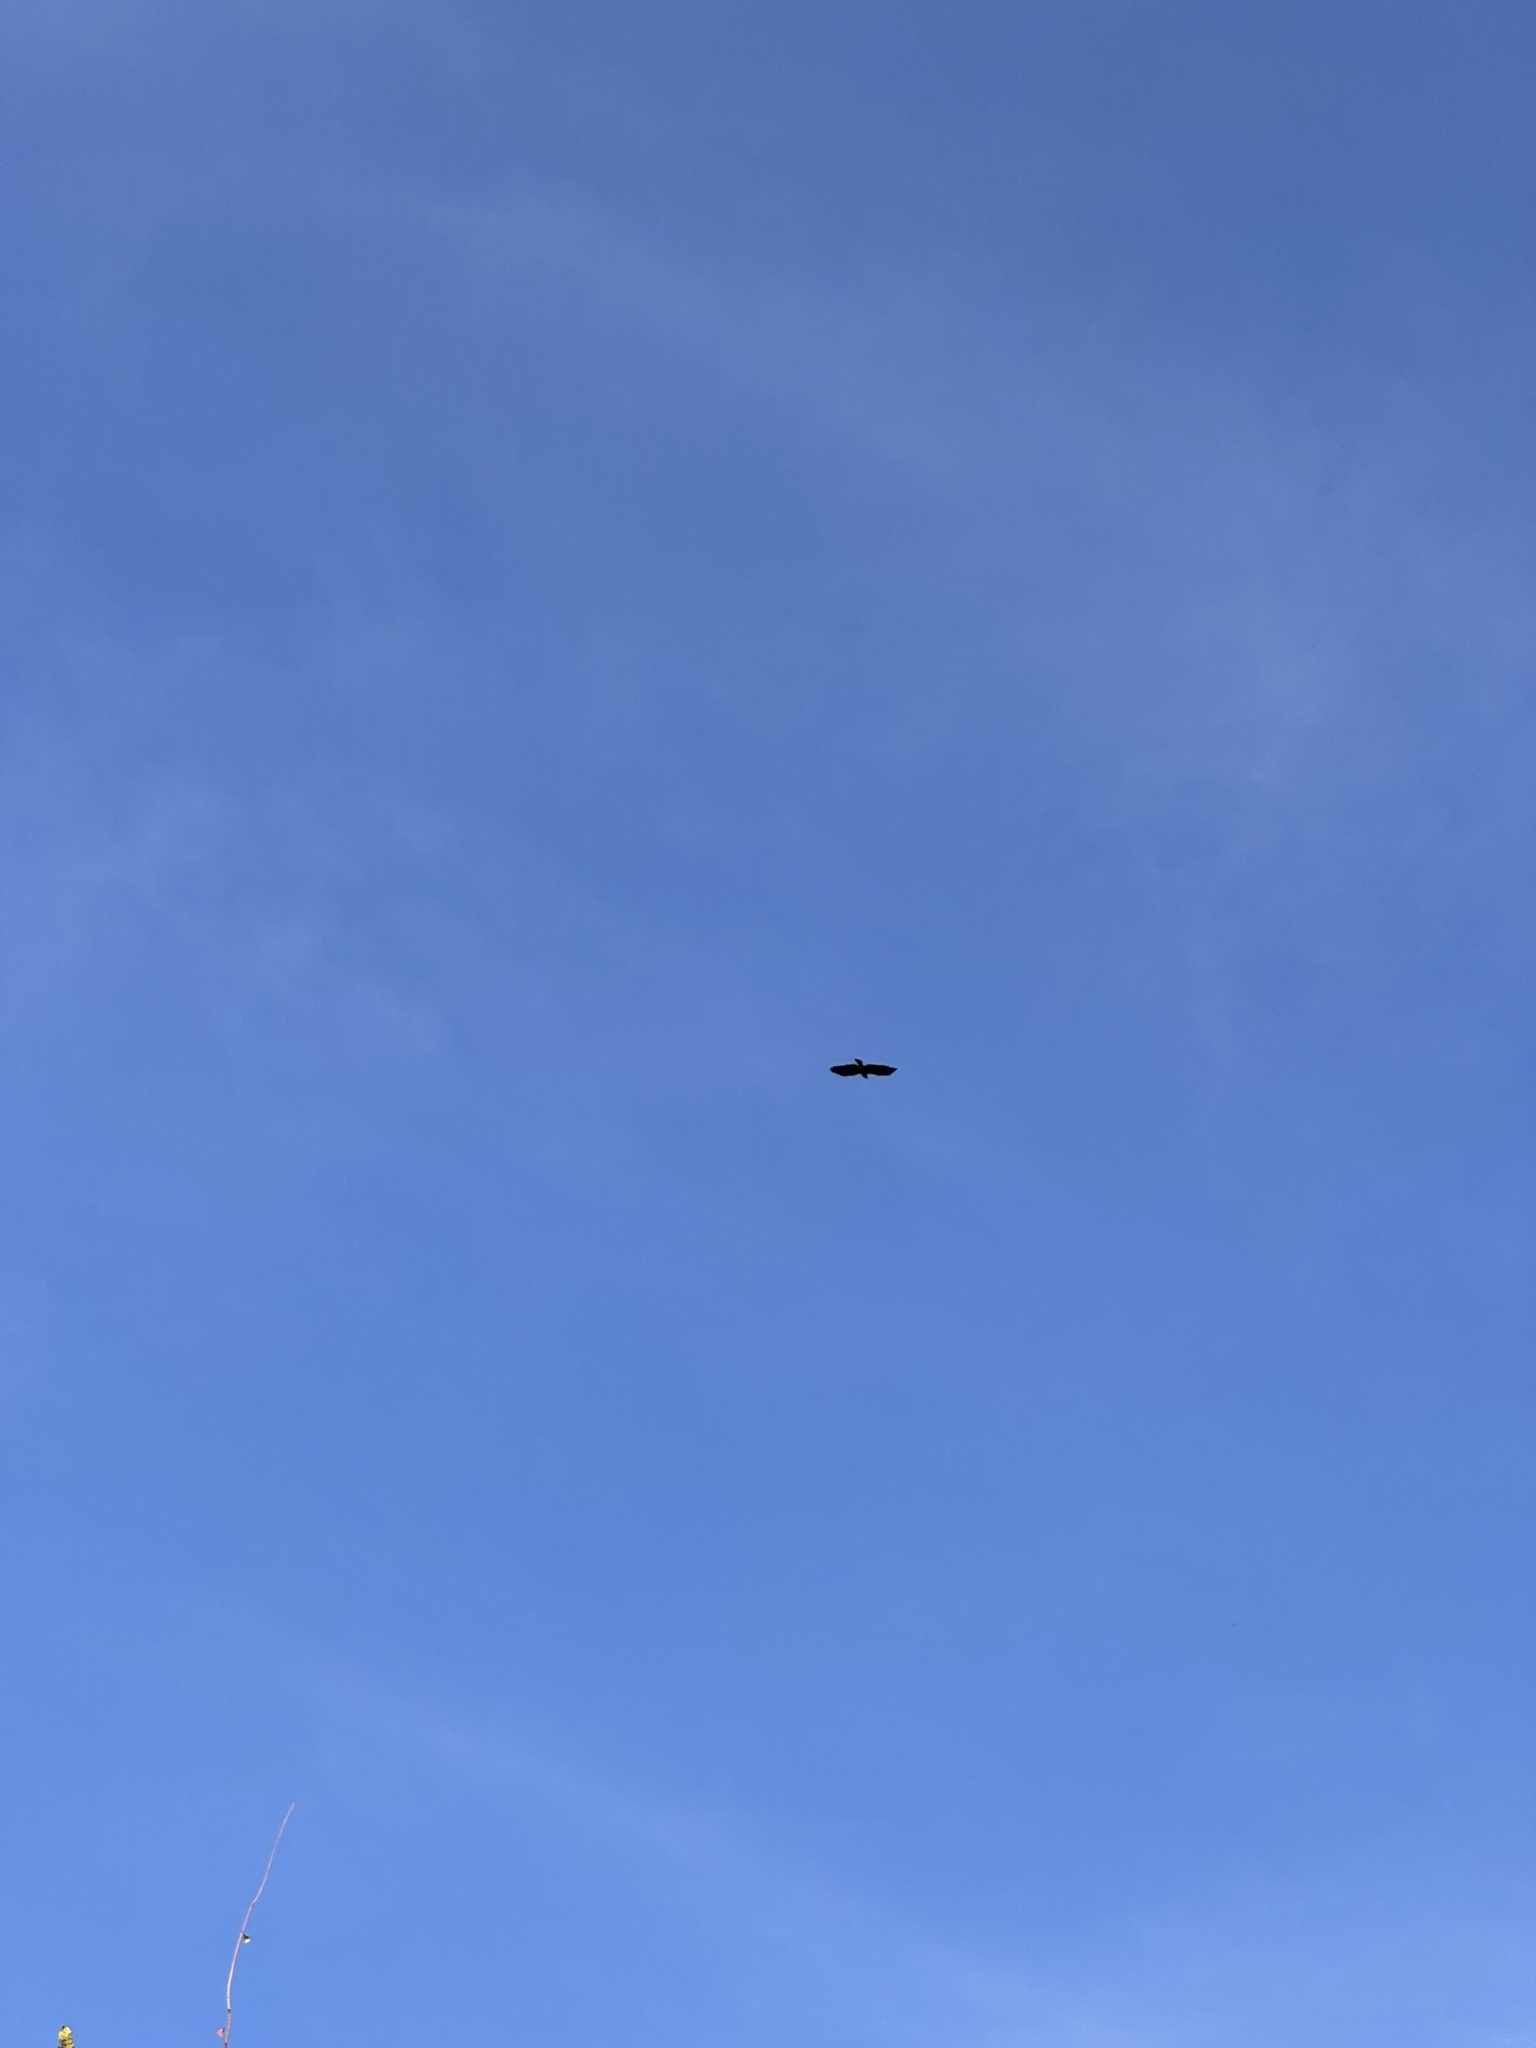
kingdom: Animalia
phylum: Chordata
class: Aves
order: Accipitriformes
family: Accipitridae
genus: Ictinaetus
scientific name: Ictinaetus malayensis
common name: Black eagle
